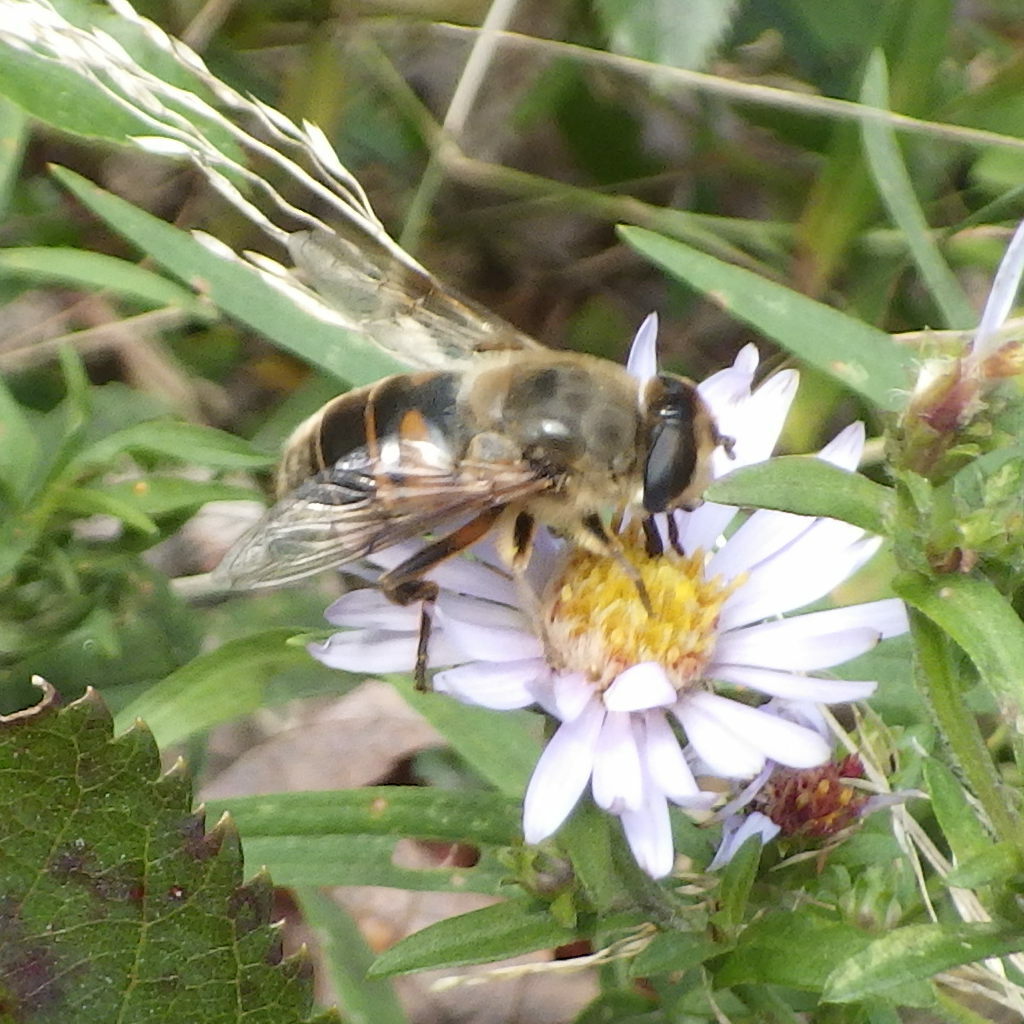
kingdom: Animalia
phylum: Arthropoda
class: Insecta
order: Diptera
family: Syrphidae
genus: Eristalis
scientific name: Eristalis tenax
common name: Drone fly
